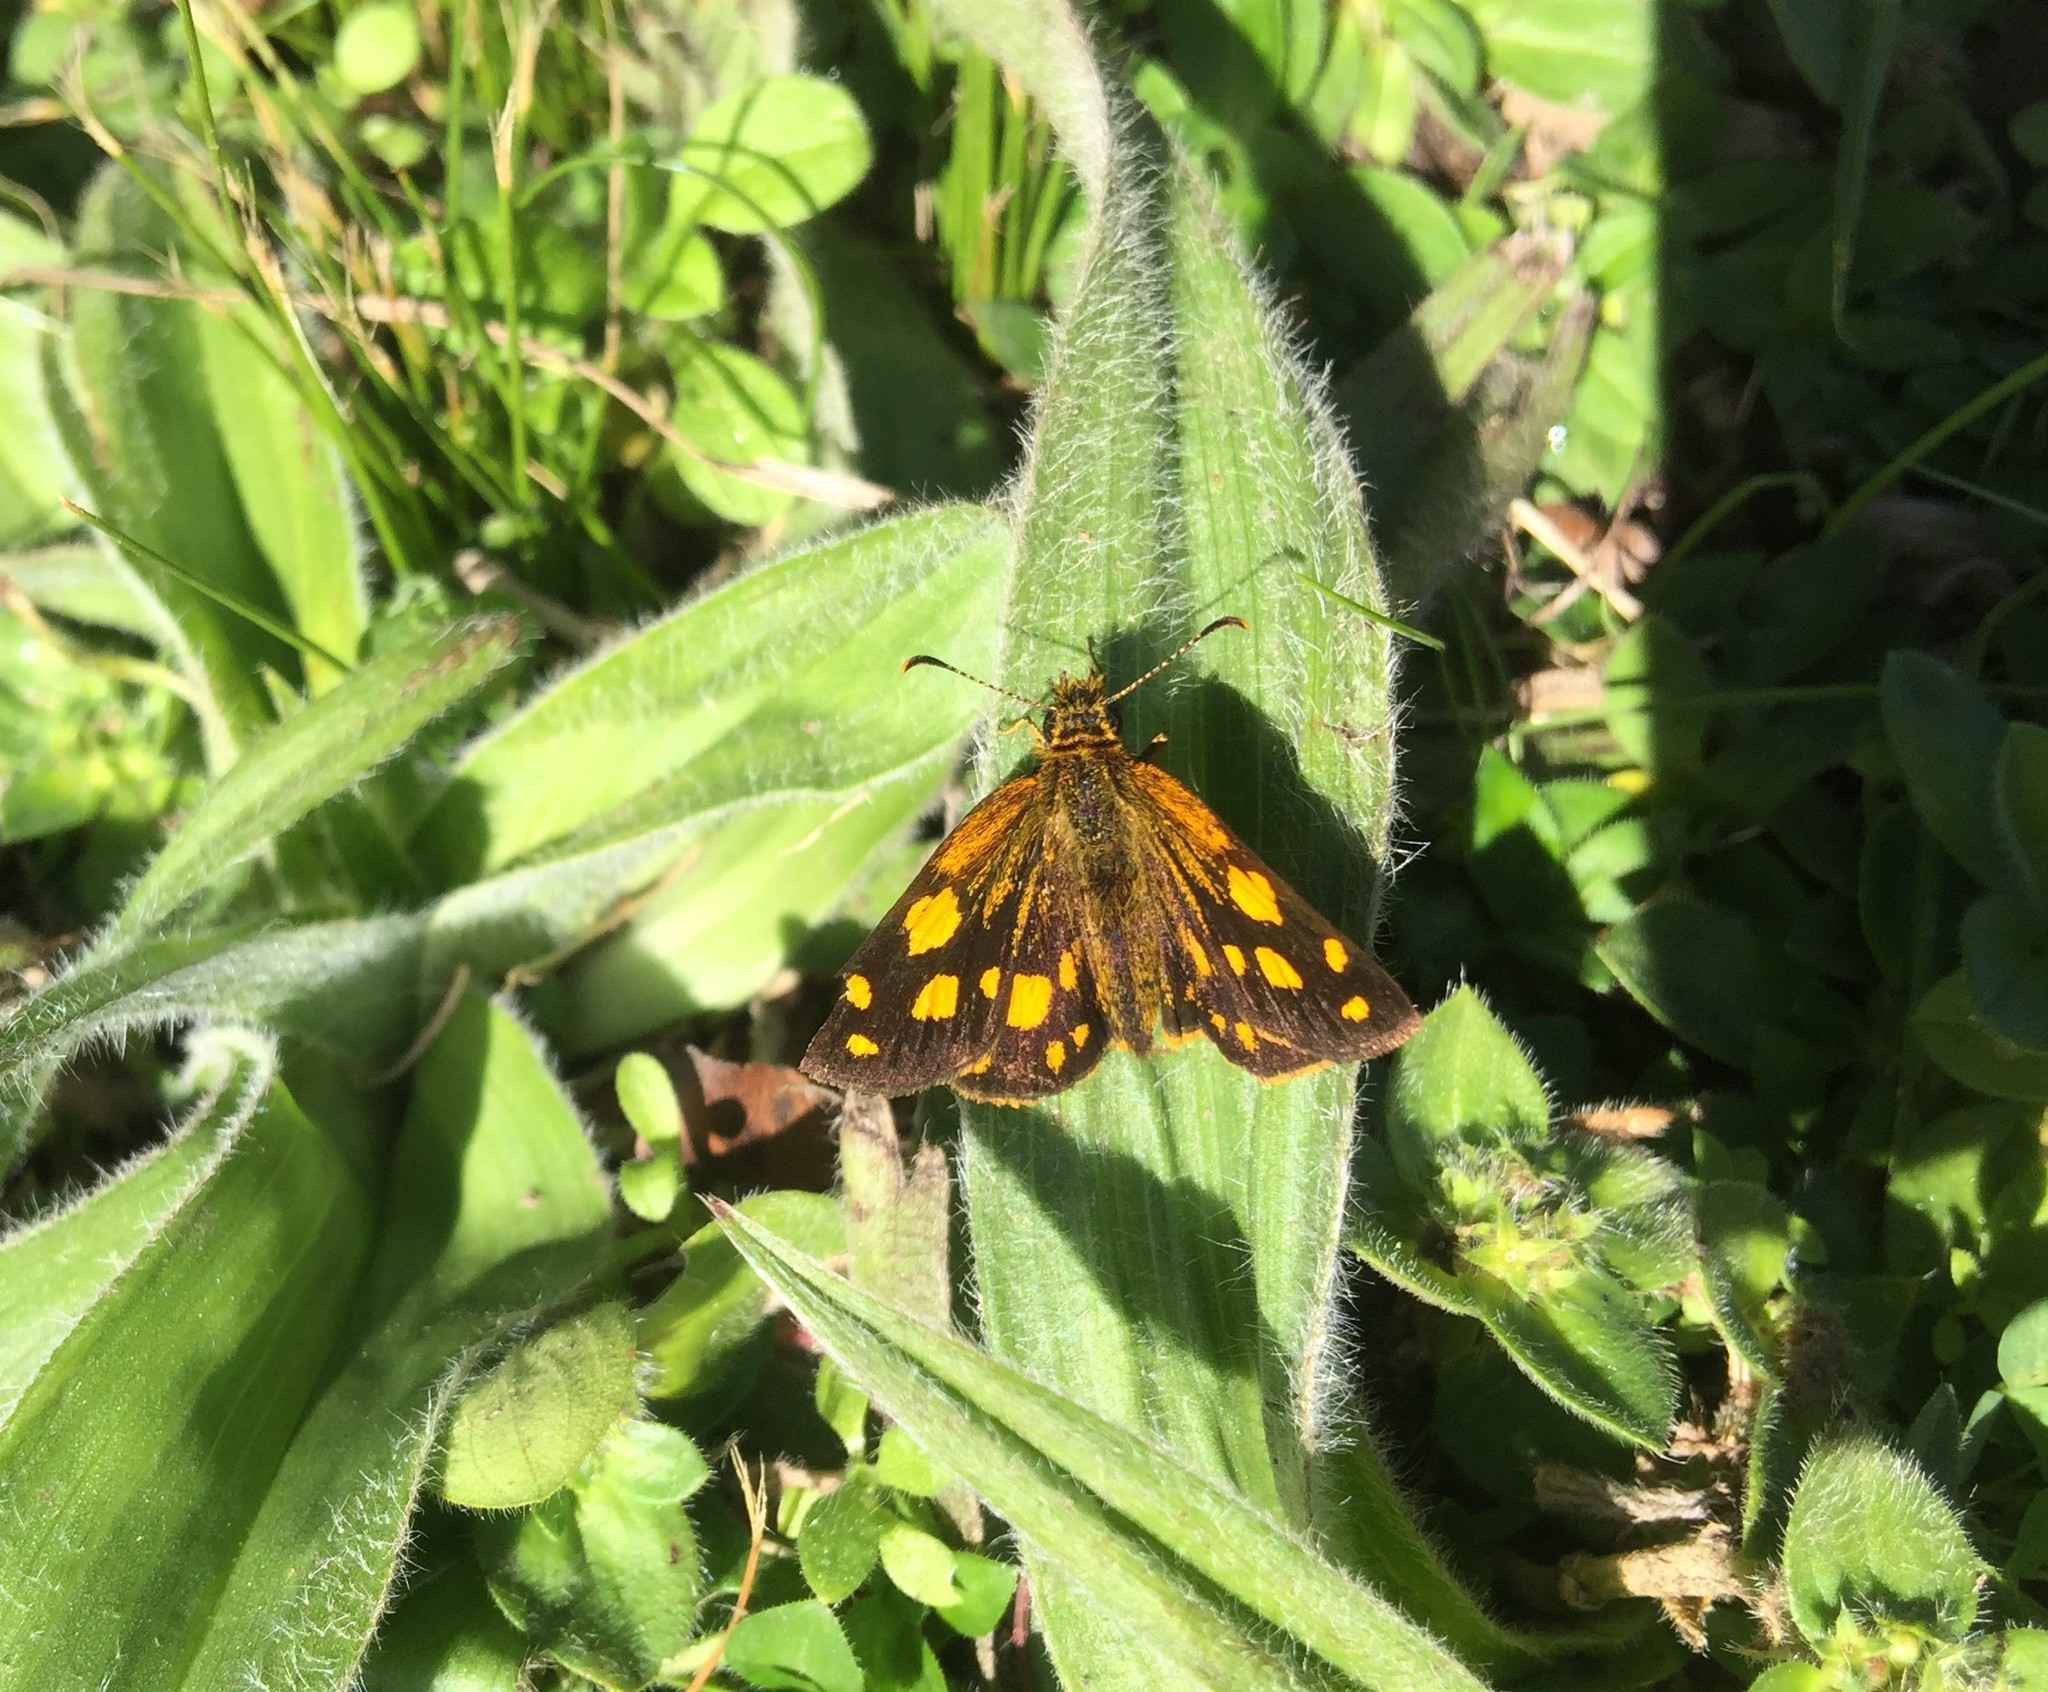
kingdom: Animalia
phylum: Arthropoda
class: Insecta
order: Lepidoptera
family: Hesperiidae
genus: Metisella
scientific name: Metisella metis
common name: Western gold-spotted sylph
